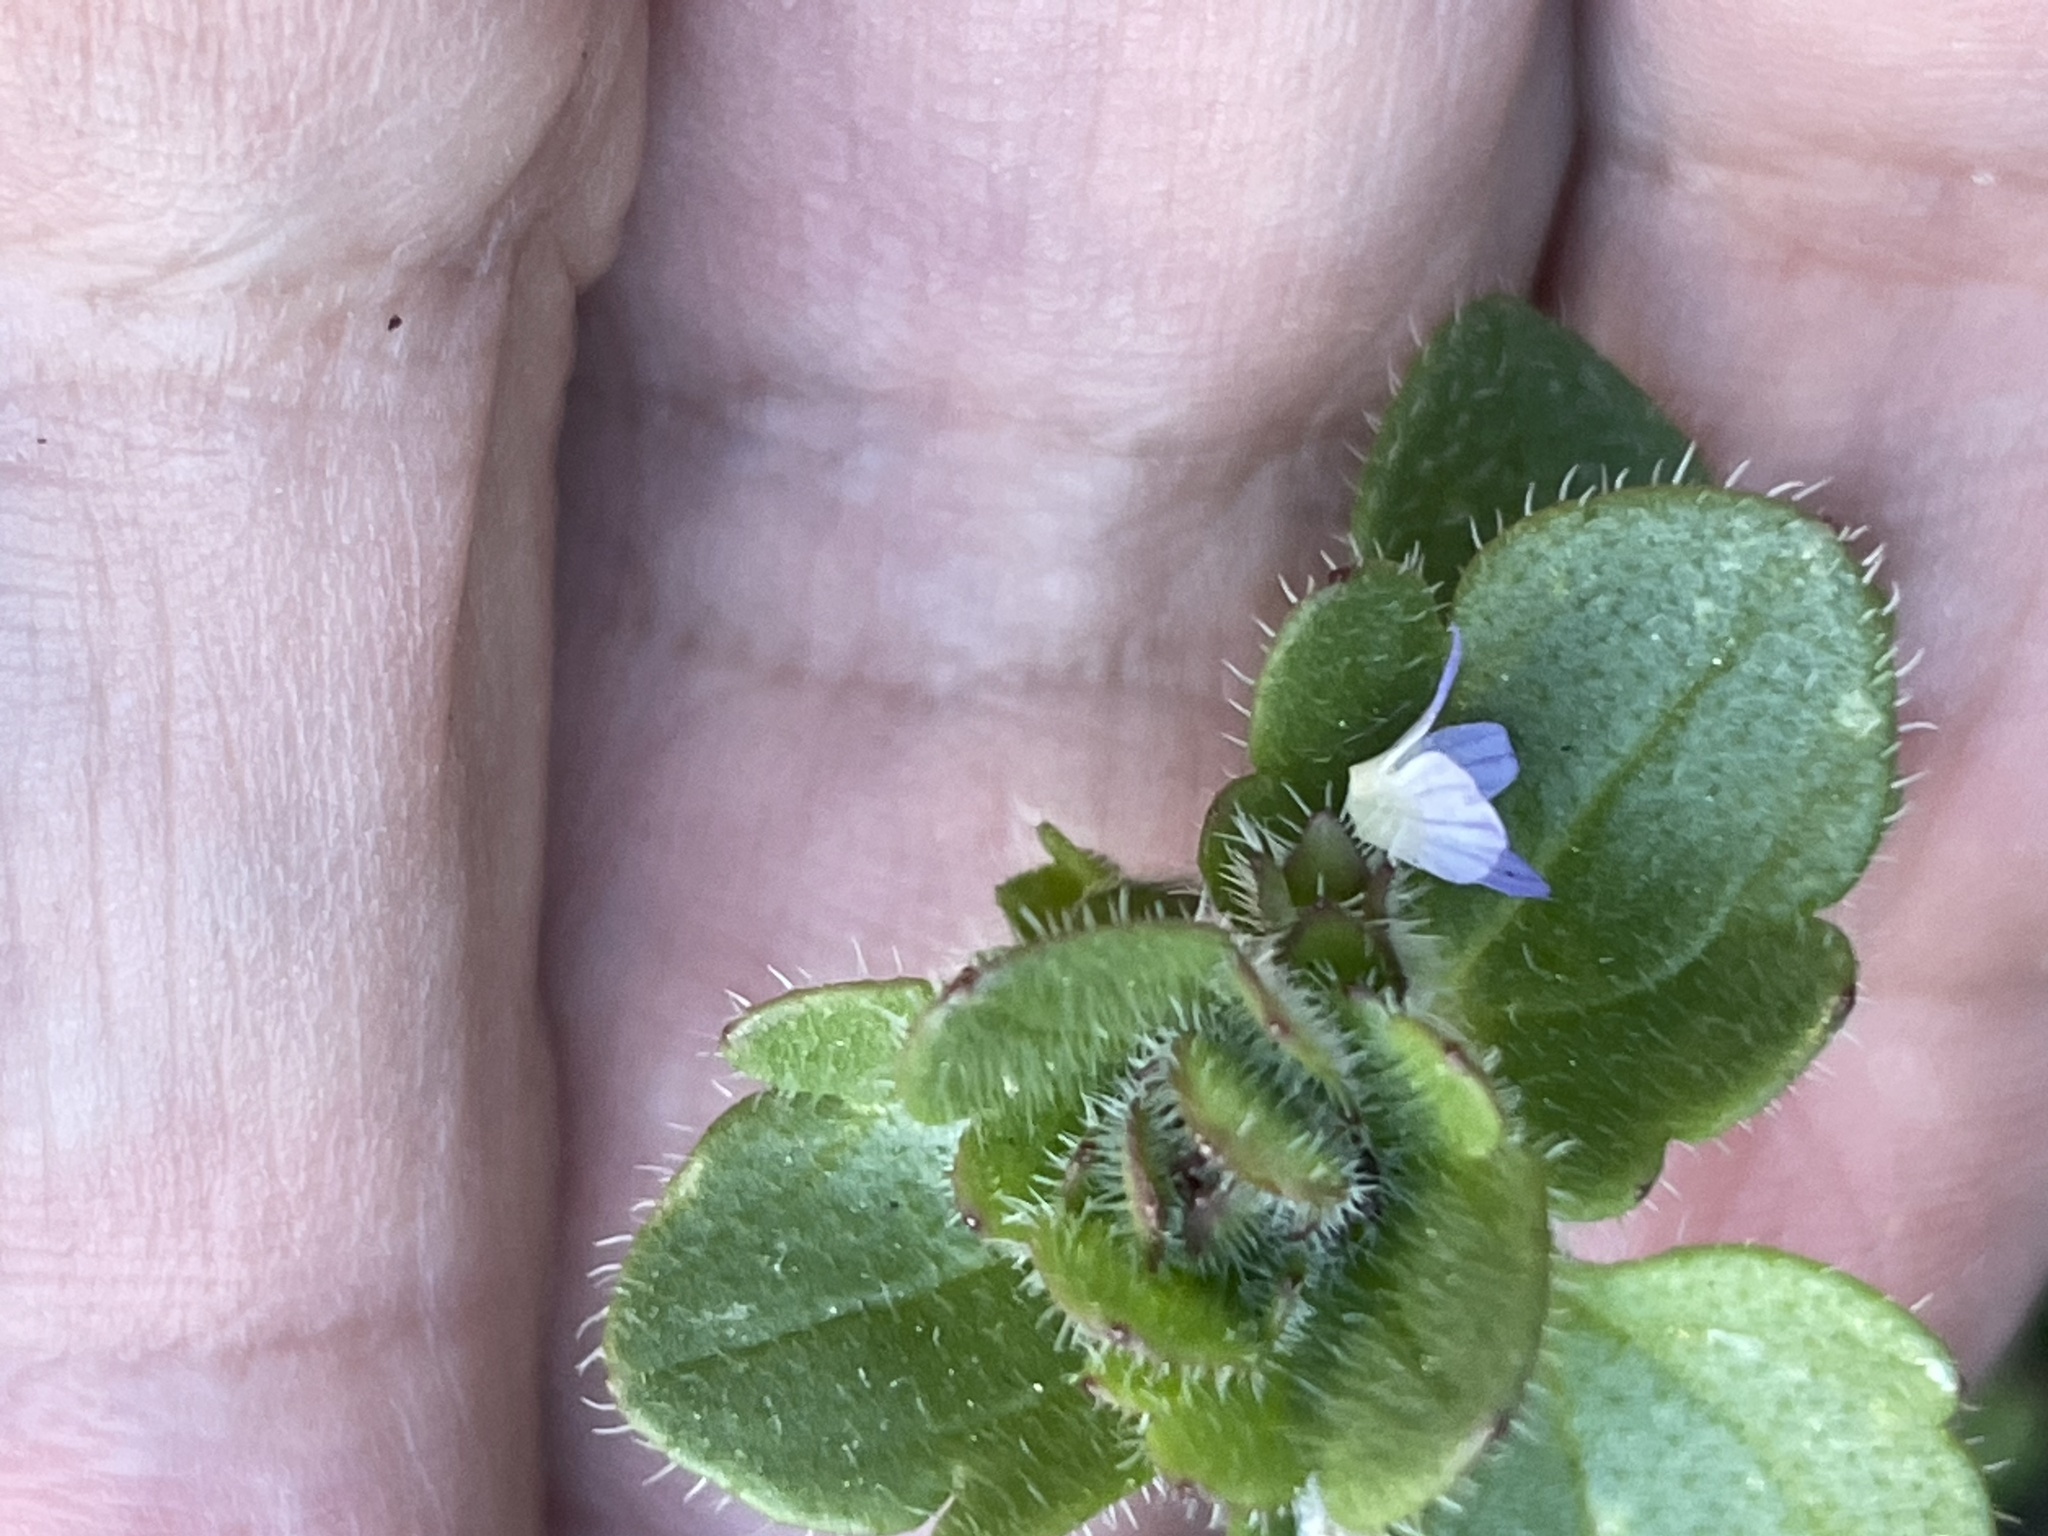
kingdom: Plantae
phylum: Tracheophyta
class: Magnoliopsida
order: Lamiales
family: Plantaginaceae
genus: Veronica
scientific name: Veronica hederifolia
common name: Ivy-leaved speedwell
